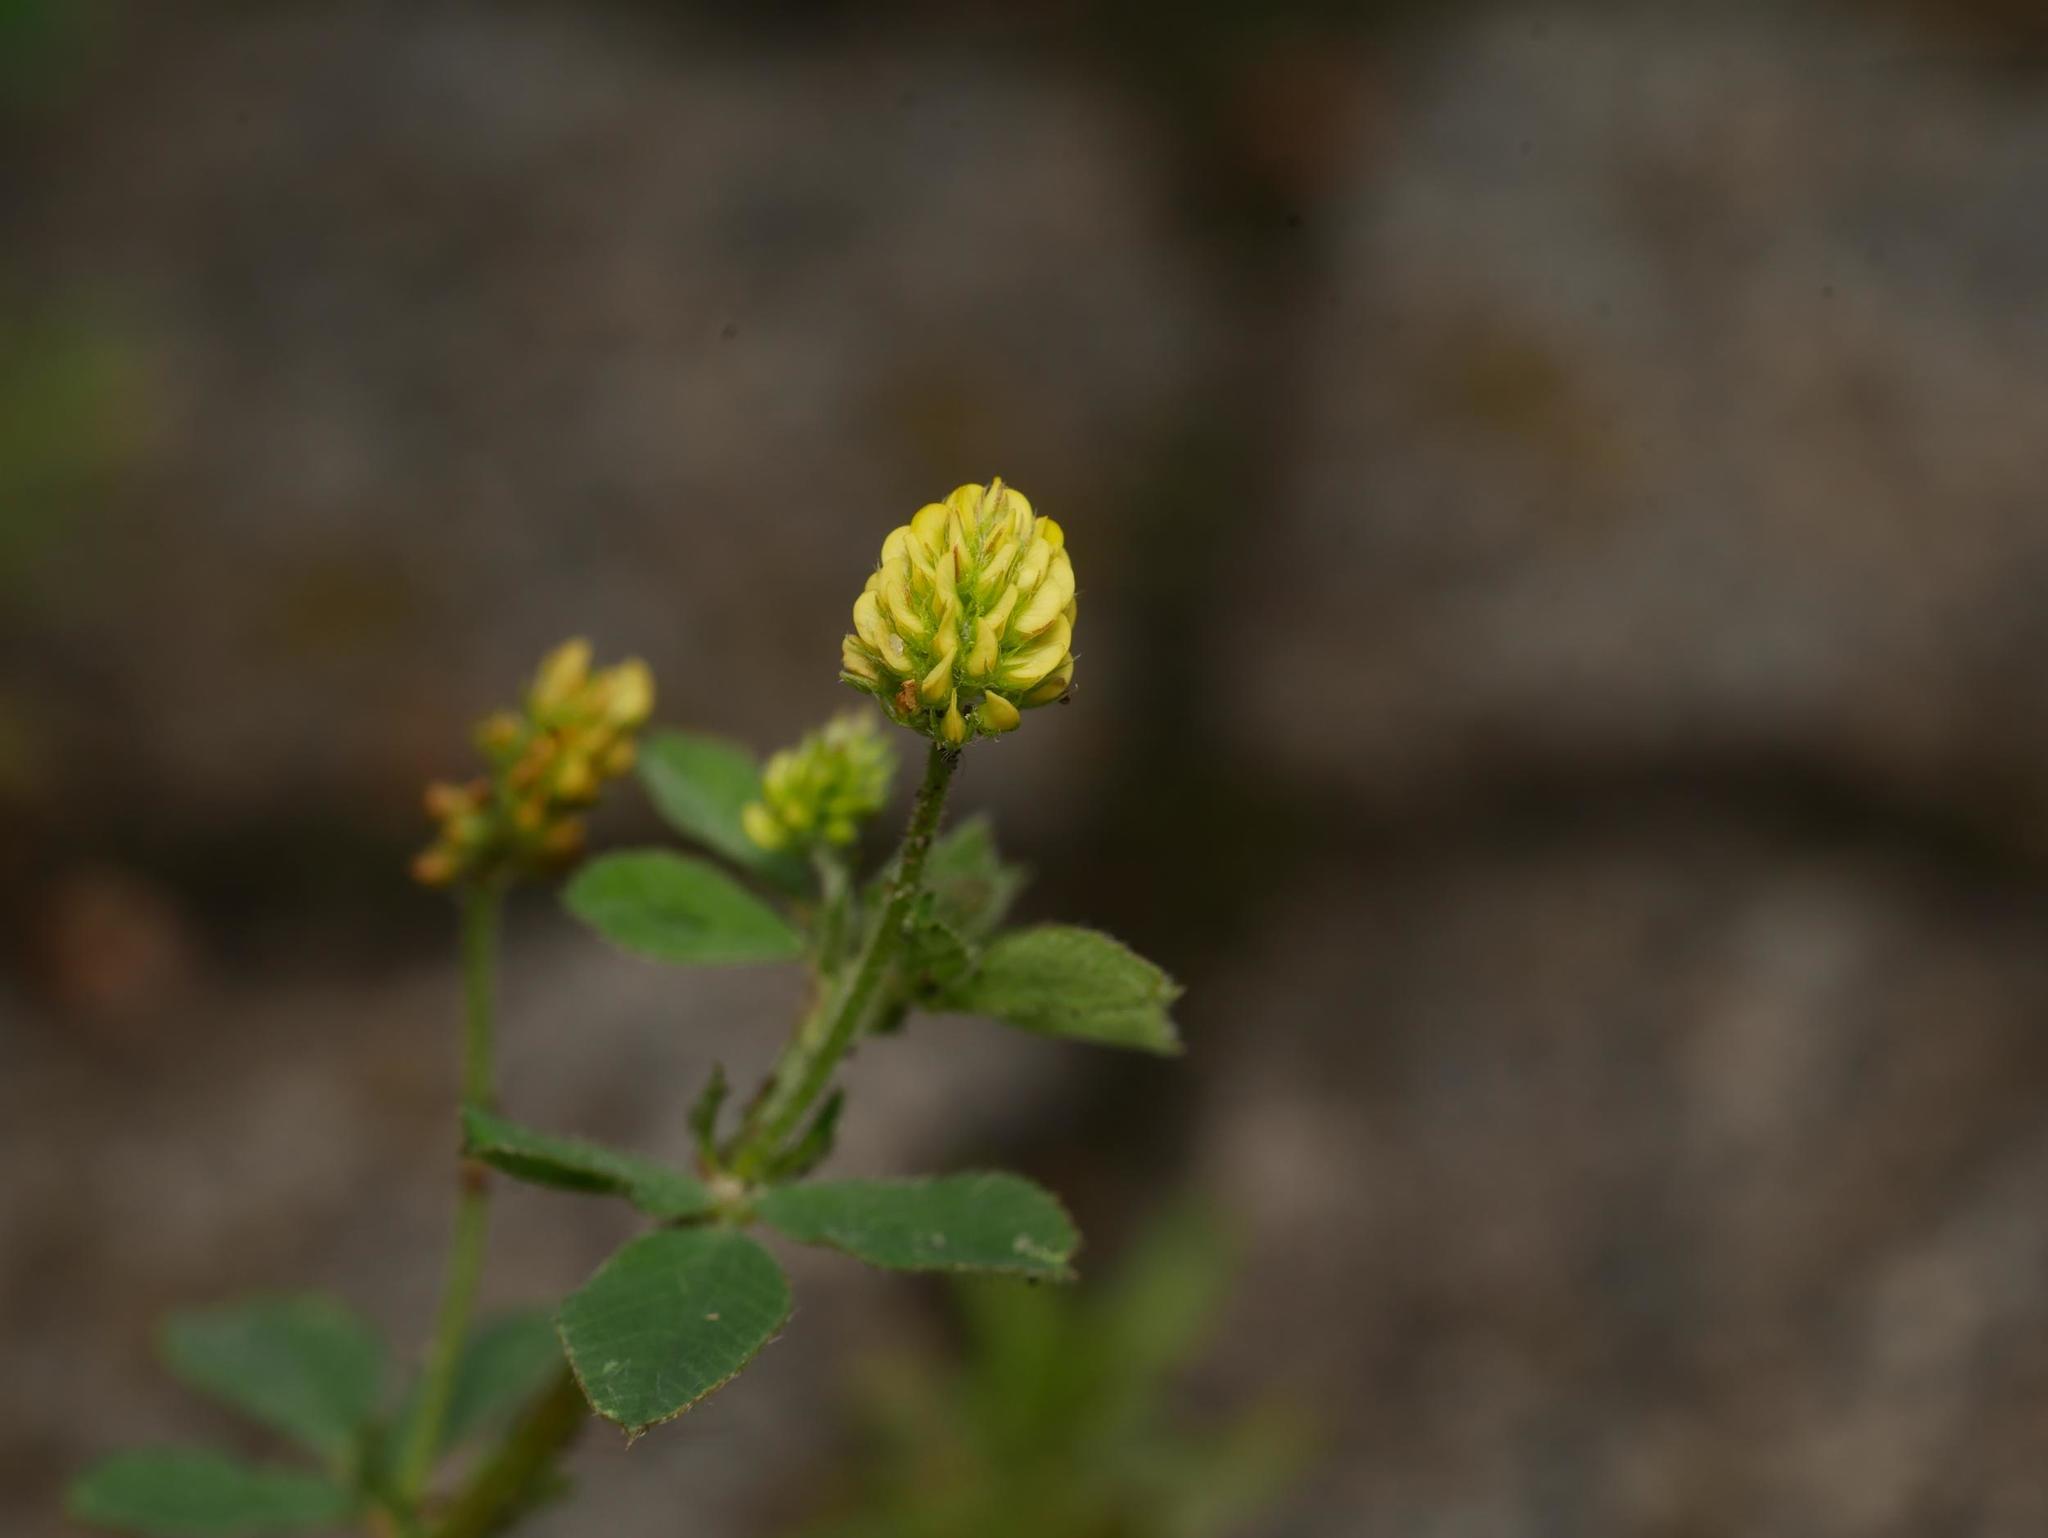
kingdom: Plantae
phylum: Tracheophyta
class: Magnoliopsida
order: Fabales
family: Fabaceae
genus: Medicago
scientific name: Medicago lupulina
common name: Black medick
